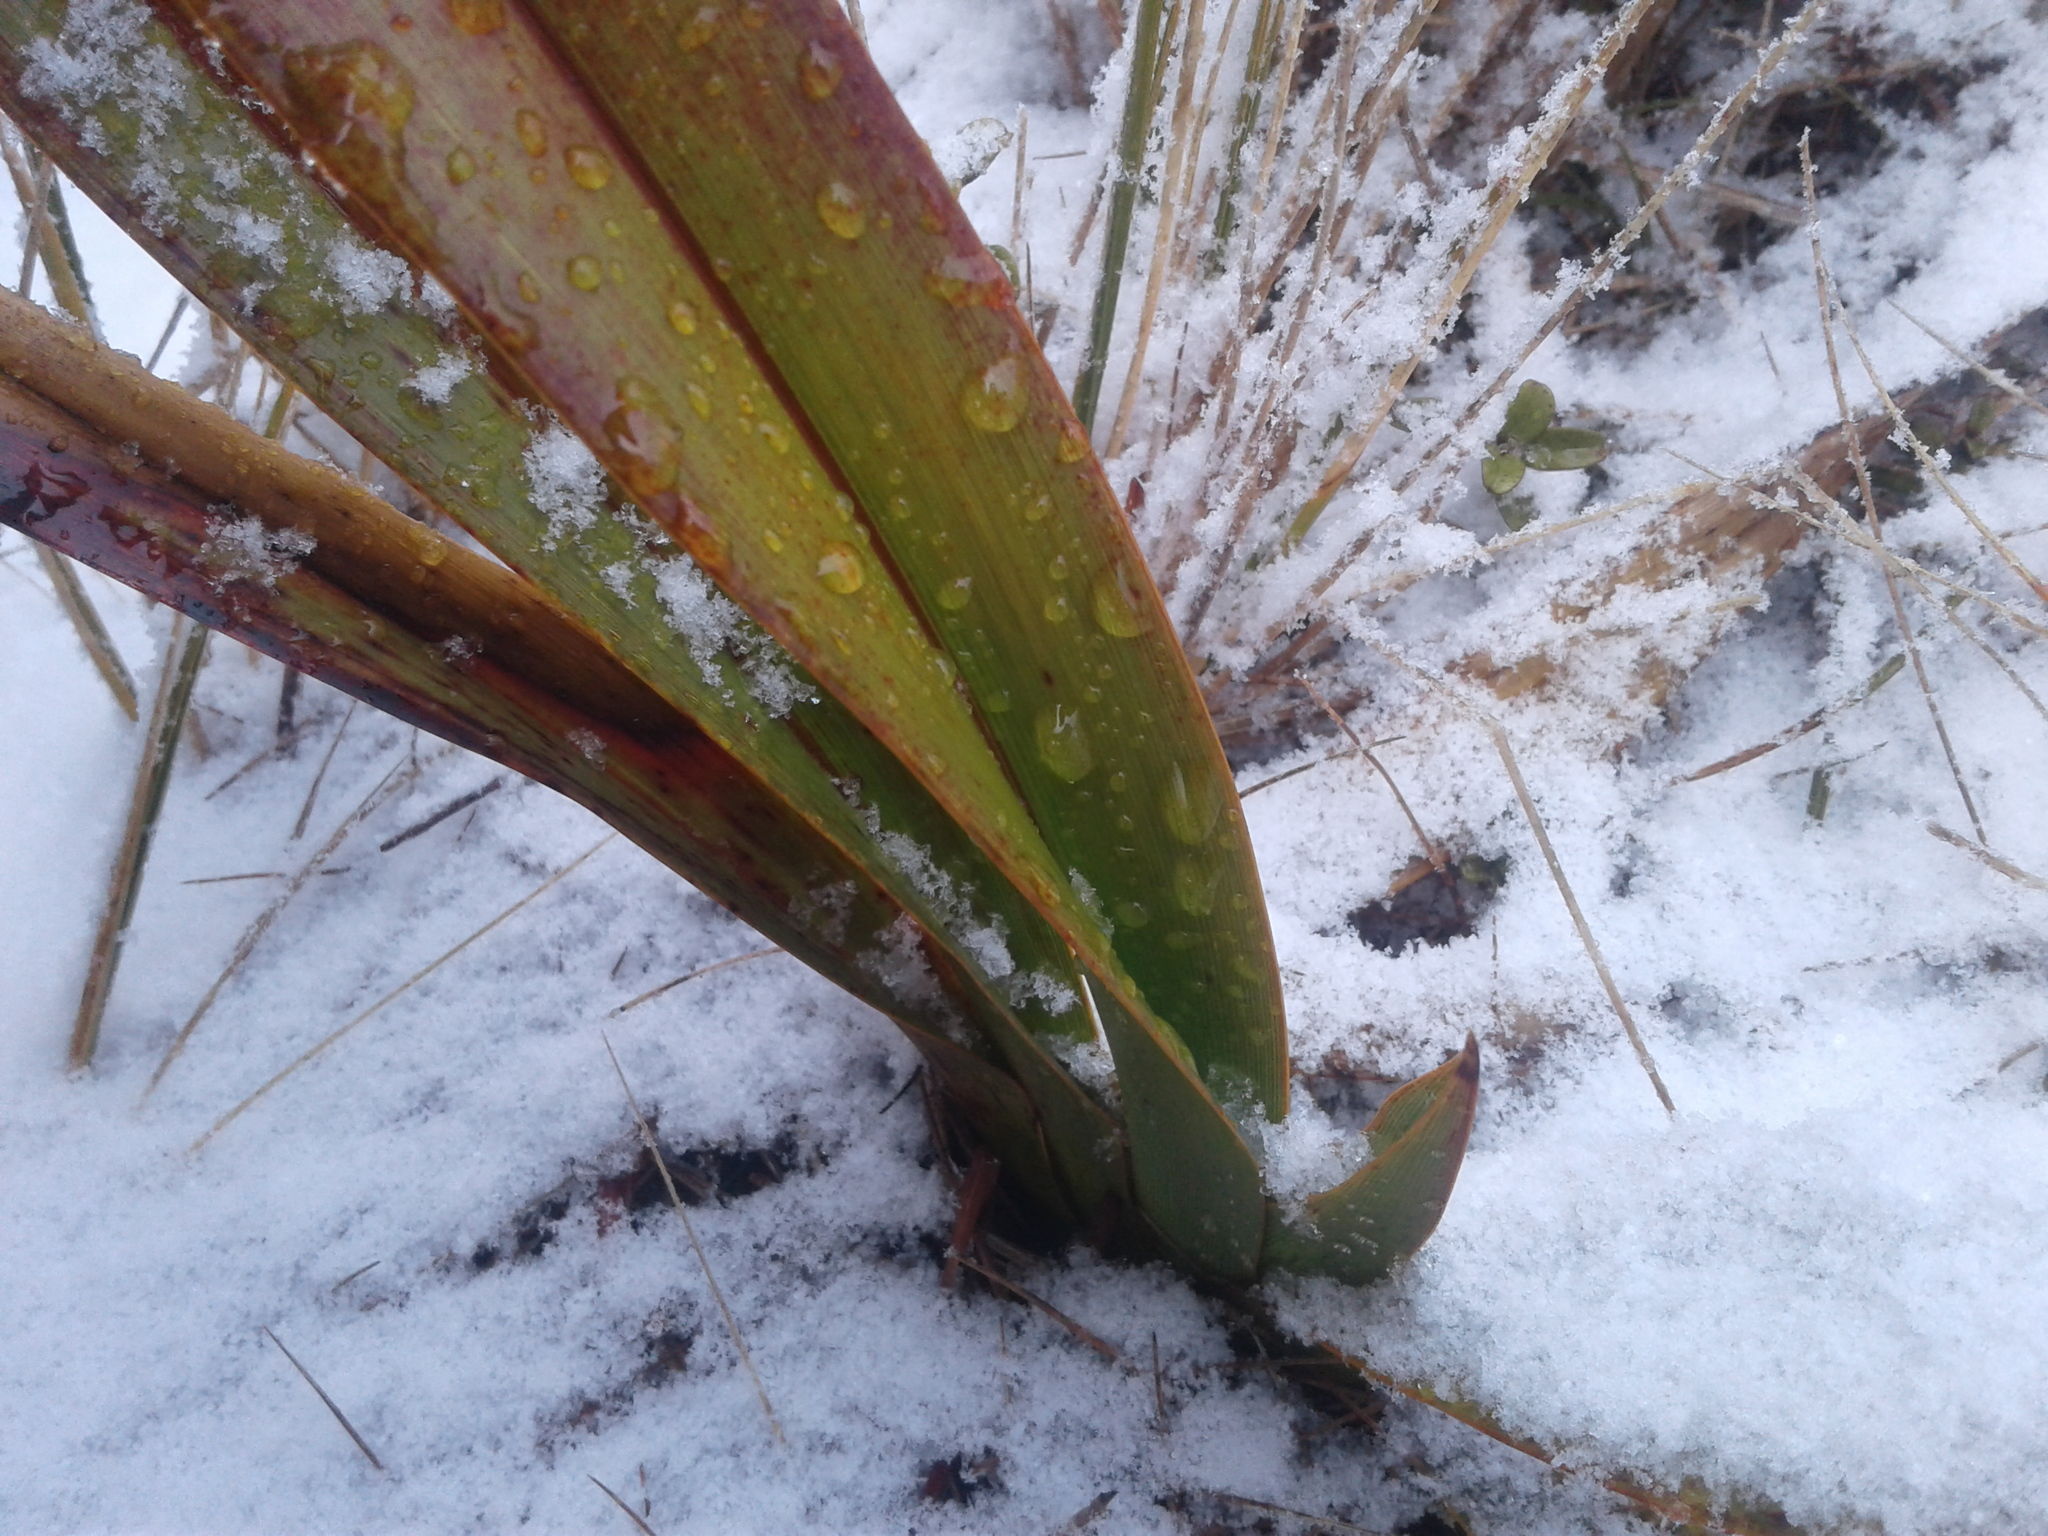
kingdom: Plantae
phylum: Tracheophyta
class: Liliopsida
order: Asparagales
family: Asphodelaceae
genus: Phormium
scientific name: Phormium colensoi
